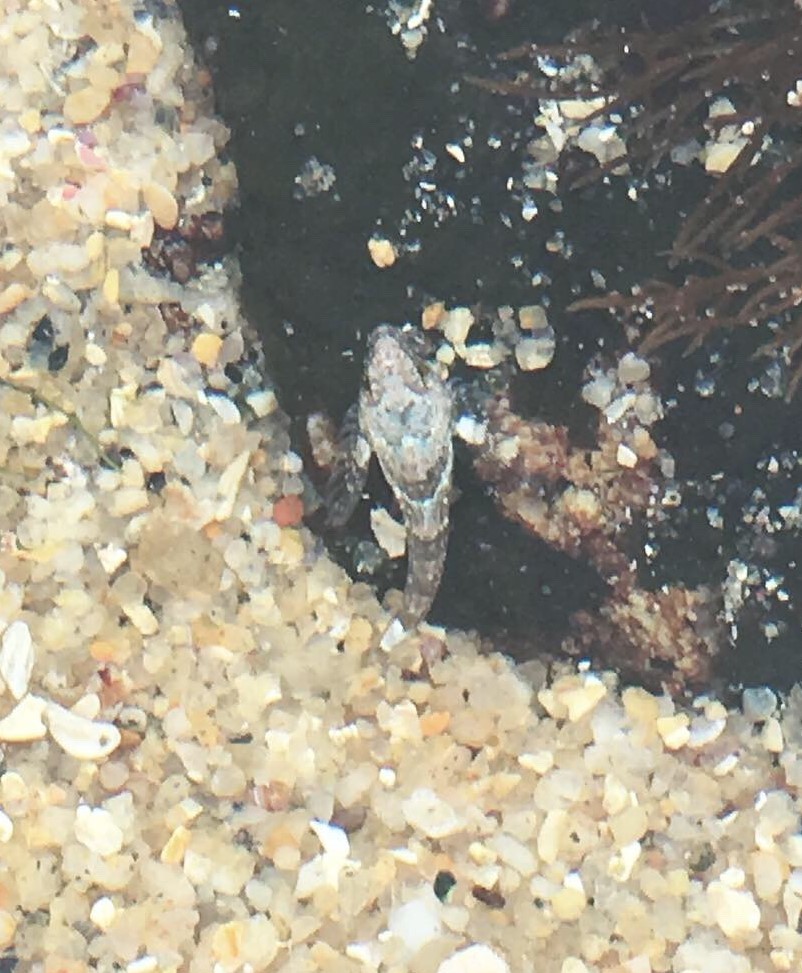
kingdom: Animalia
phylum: Chordata
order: Scorpaeniformes
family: Cottidae
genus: Clinocottus
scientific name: Clinocottus analis
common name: Woolly sculpin
